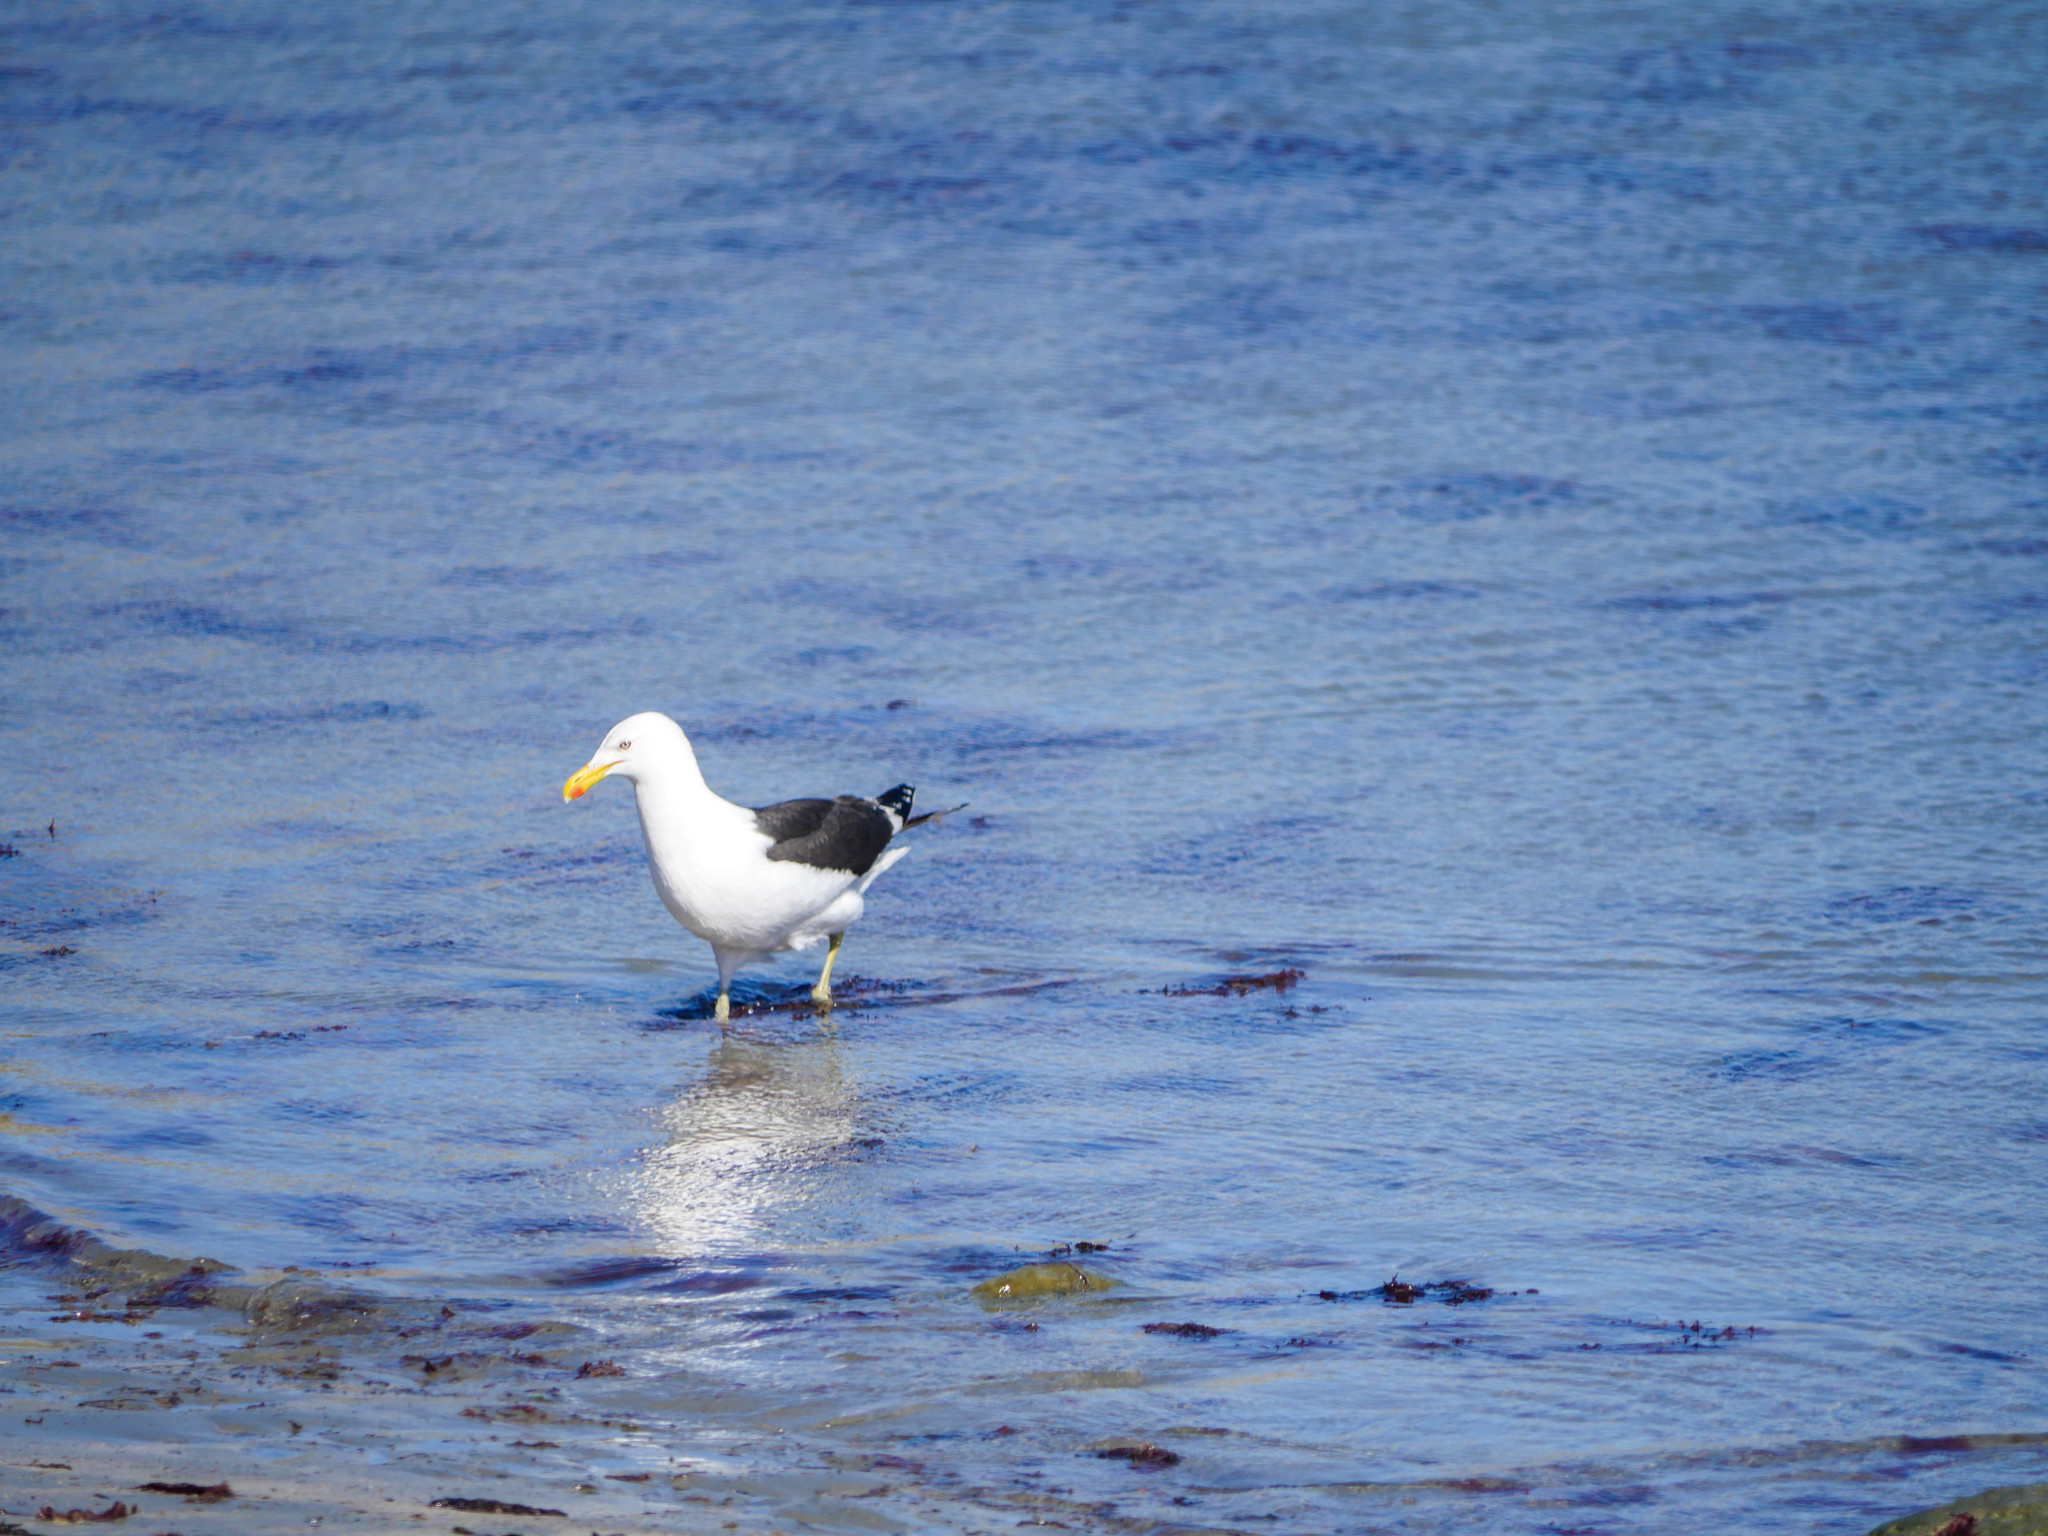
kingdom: Animalia
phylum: Chordata
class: Aves
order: Charadriiformes
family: Laridae
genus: Larus
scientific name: Larus dominicanus
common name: Kelp gull
